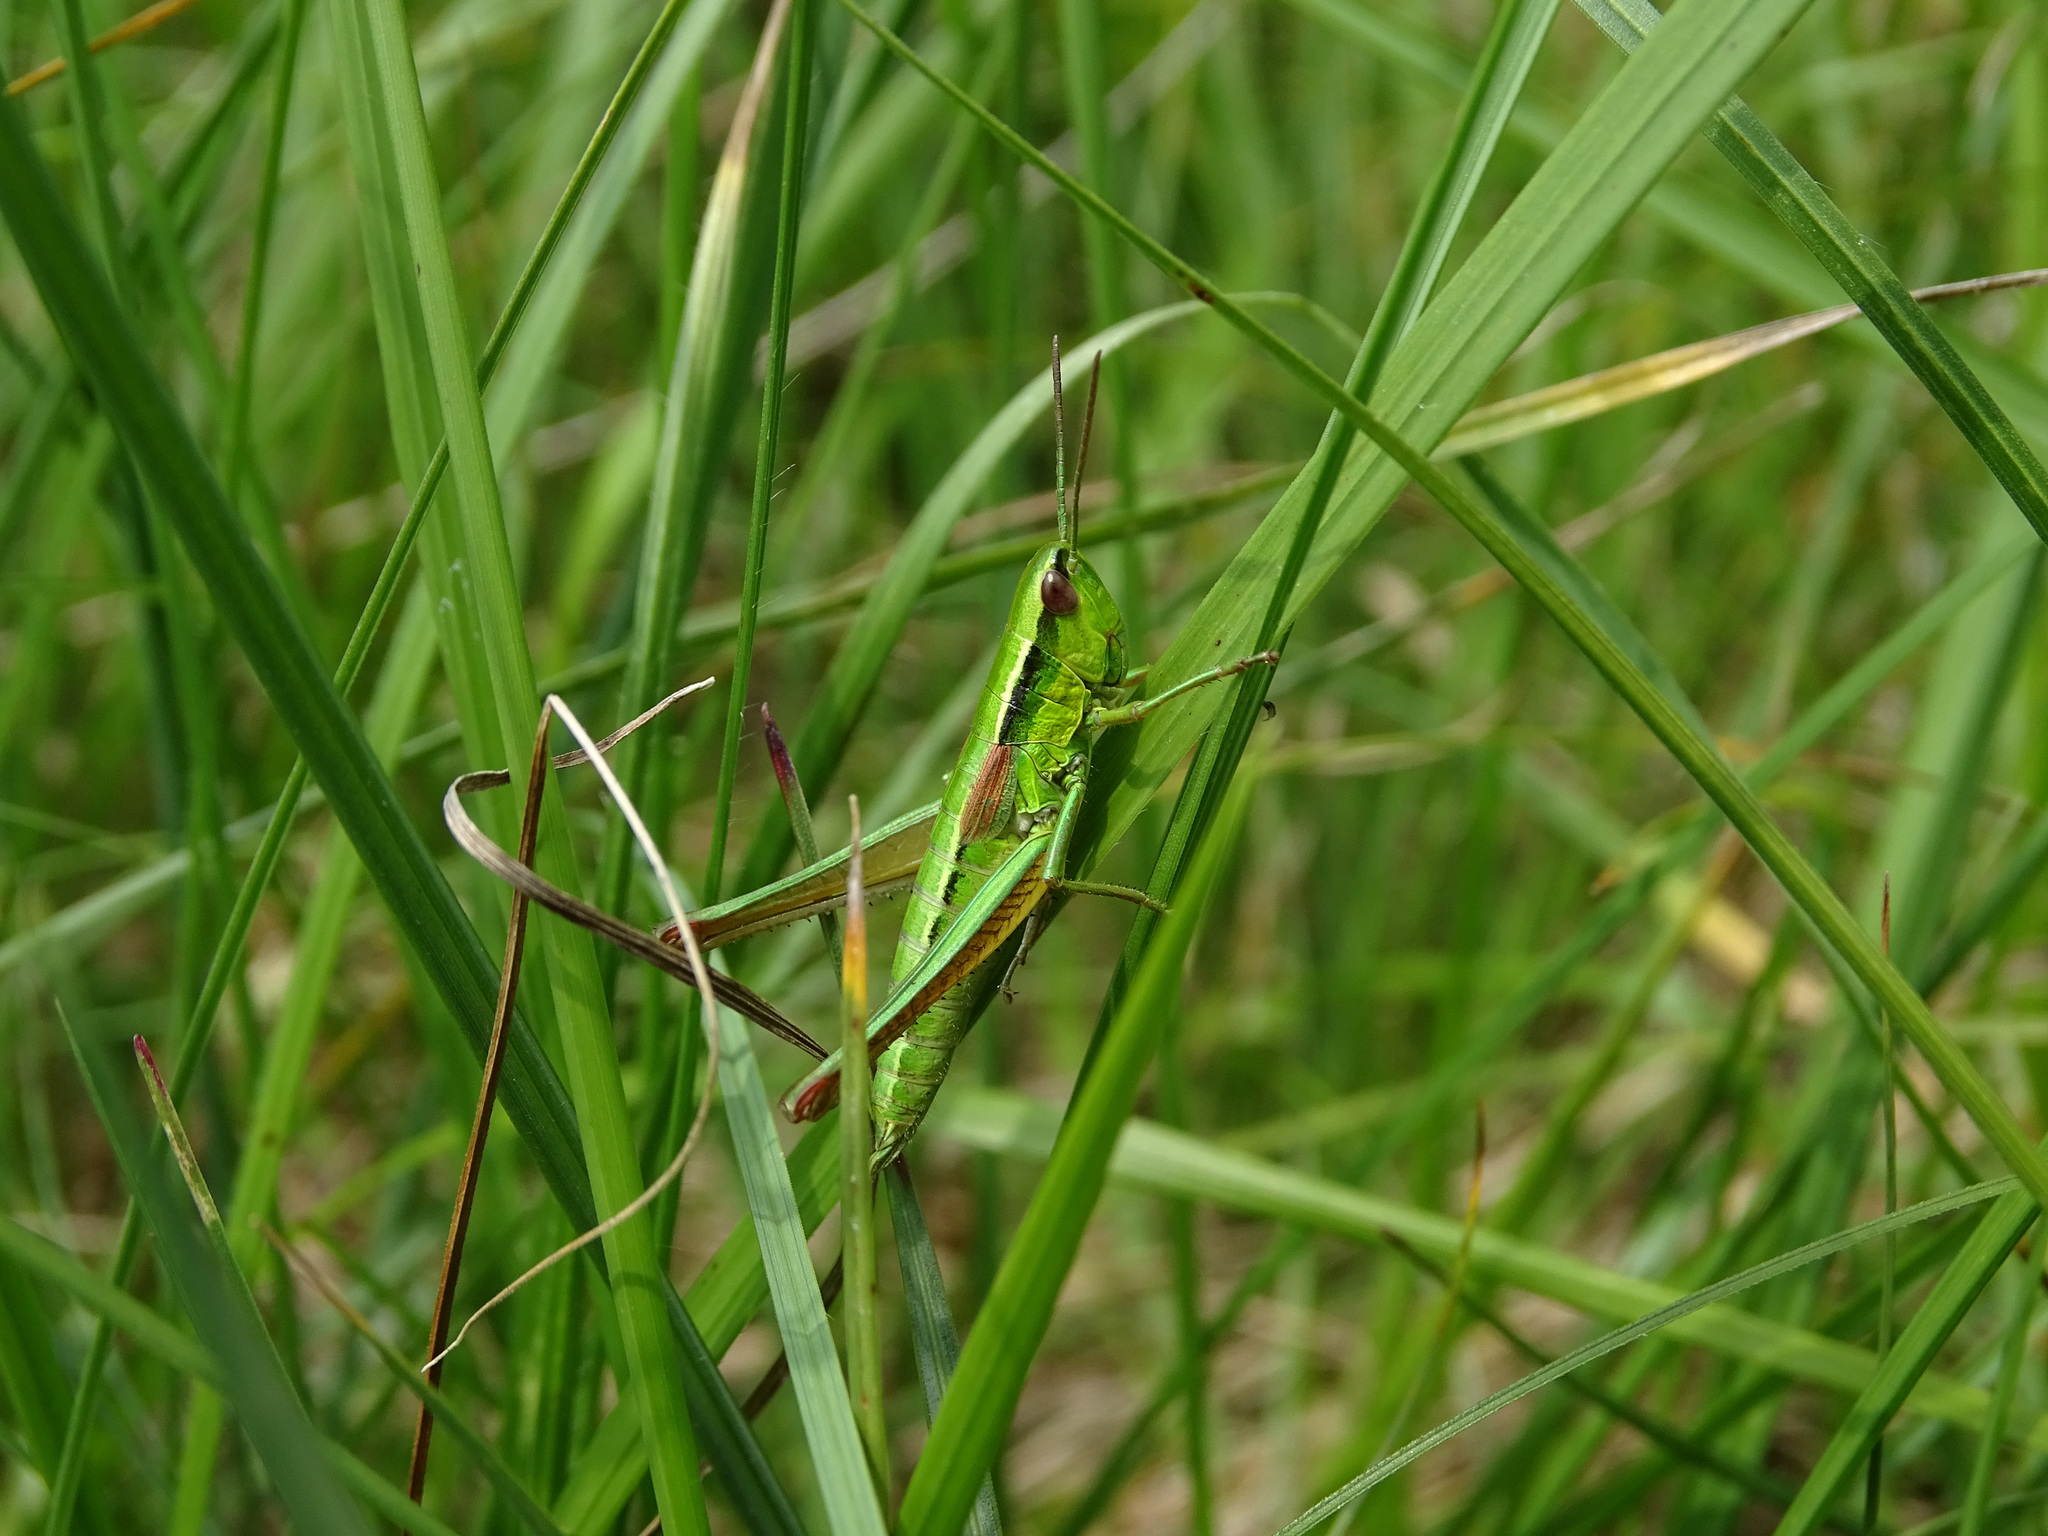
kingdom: Animalia
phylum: Arthropoda
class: Insecta
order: Orthoptera
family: Acrididae
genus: Euthystira
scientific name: Euthystira brachyptera
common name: Small gold grasshopper
